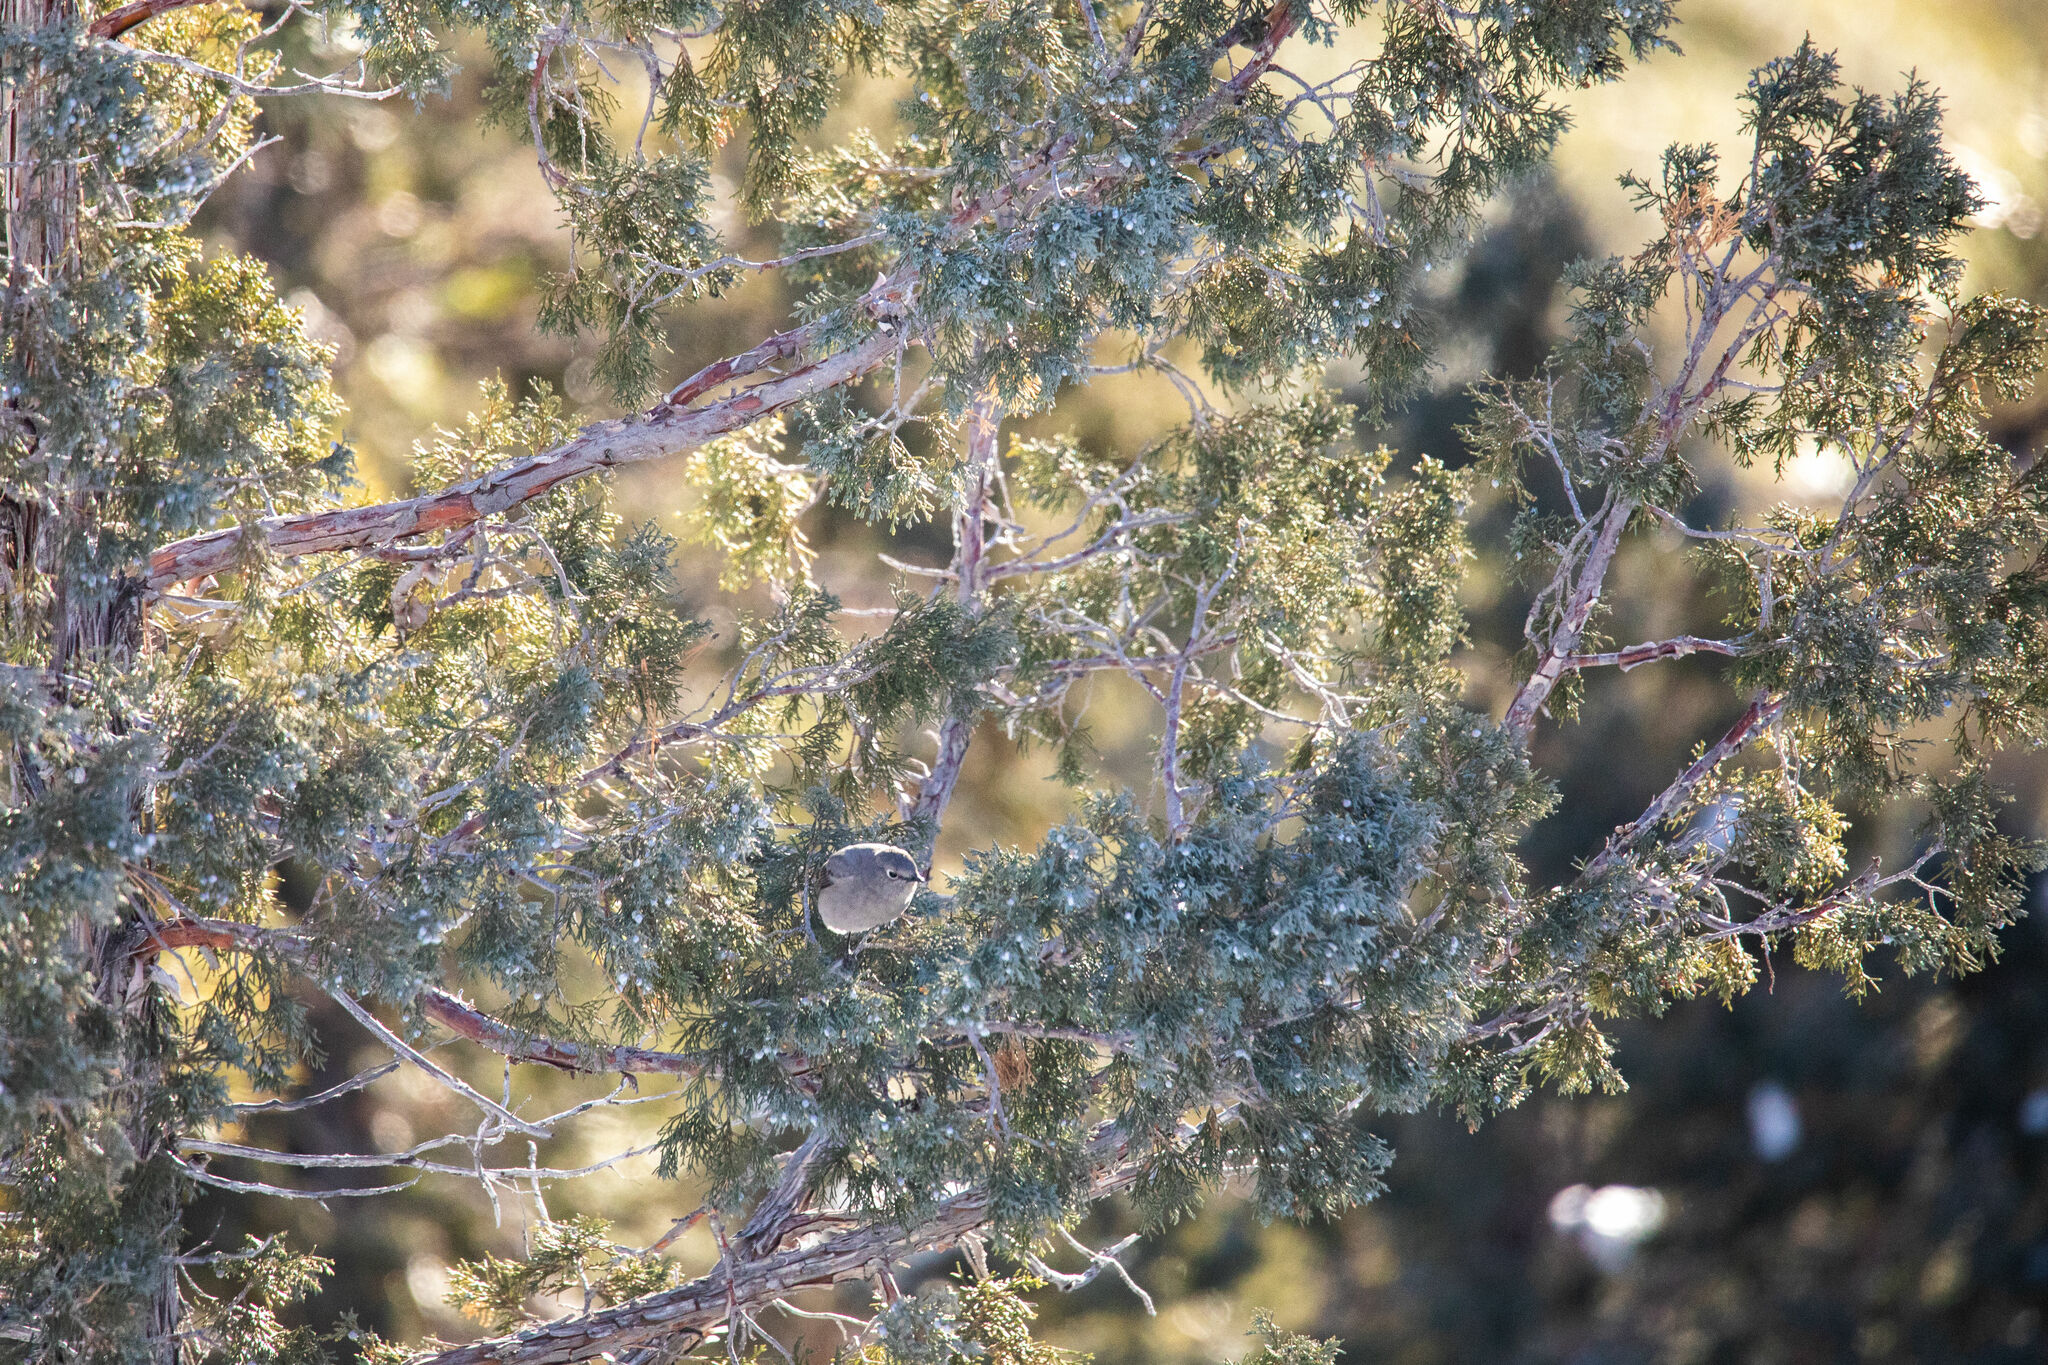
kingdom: Animalia
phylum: Chordata
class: Aves
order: Passeriformes
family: Turdidae
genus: Myadestes
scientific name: Myadestes townsendi
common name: Townsend's solitaire
